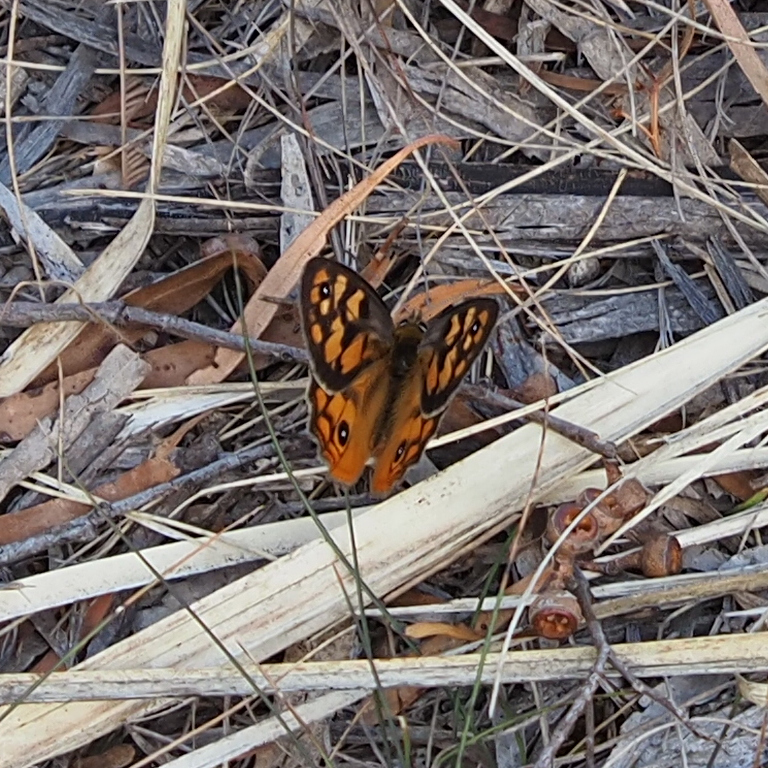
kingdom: Animalia
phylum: Arthropoda
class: Insecta
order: Lepidoptera
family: Nymphalidae
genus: Heteronympha
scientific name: Heteronympha penelope
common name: Shouldered brown
